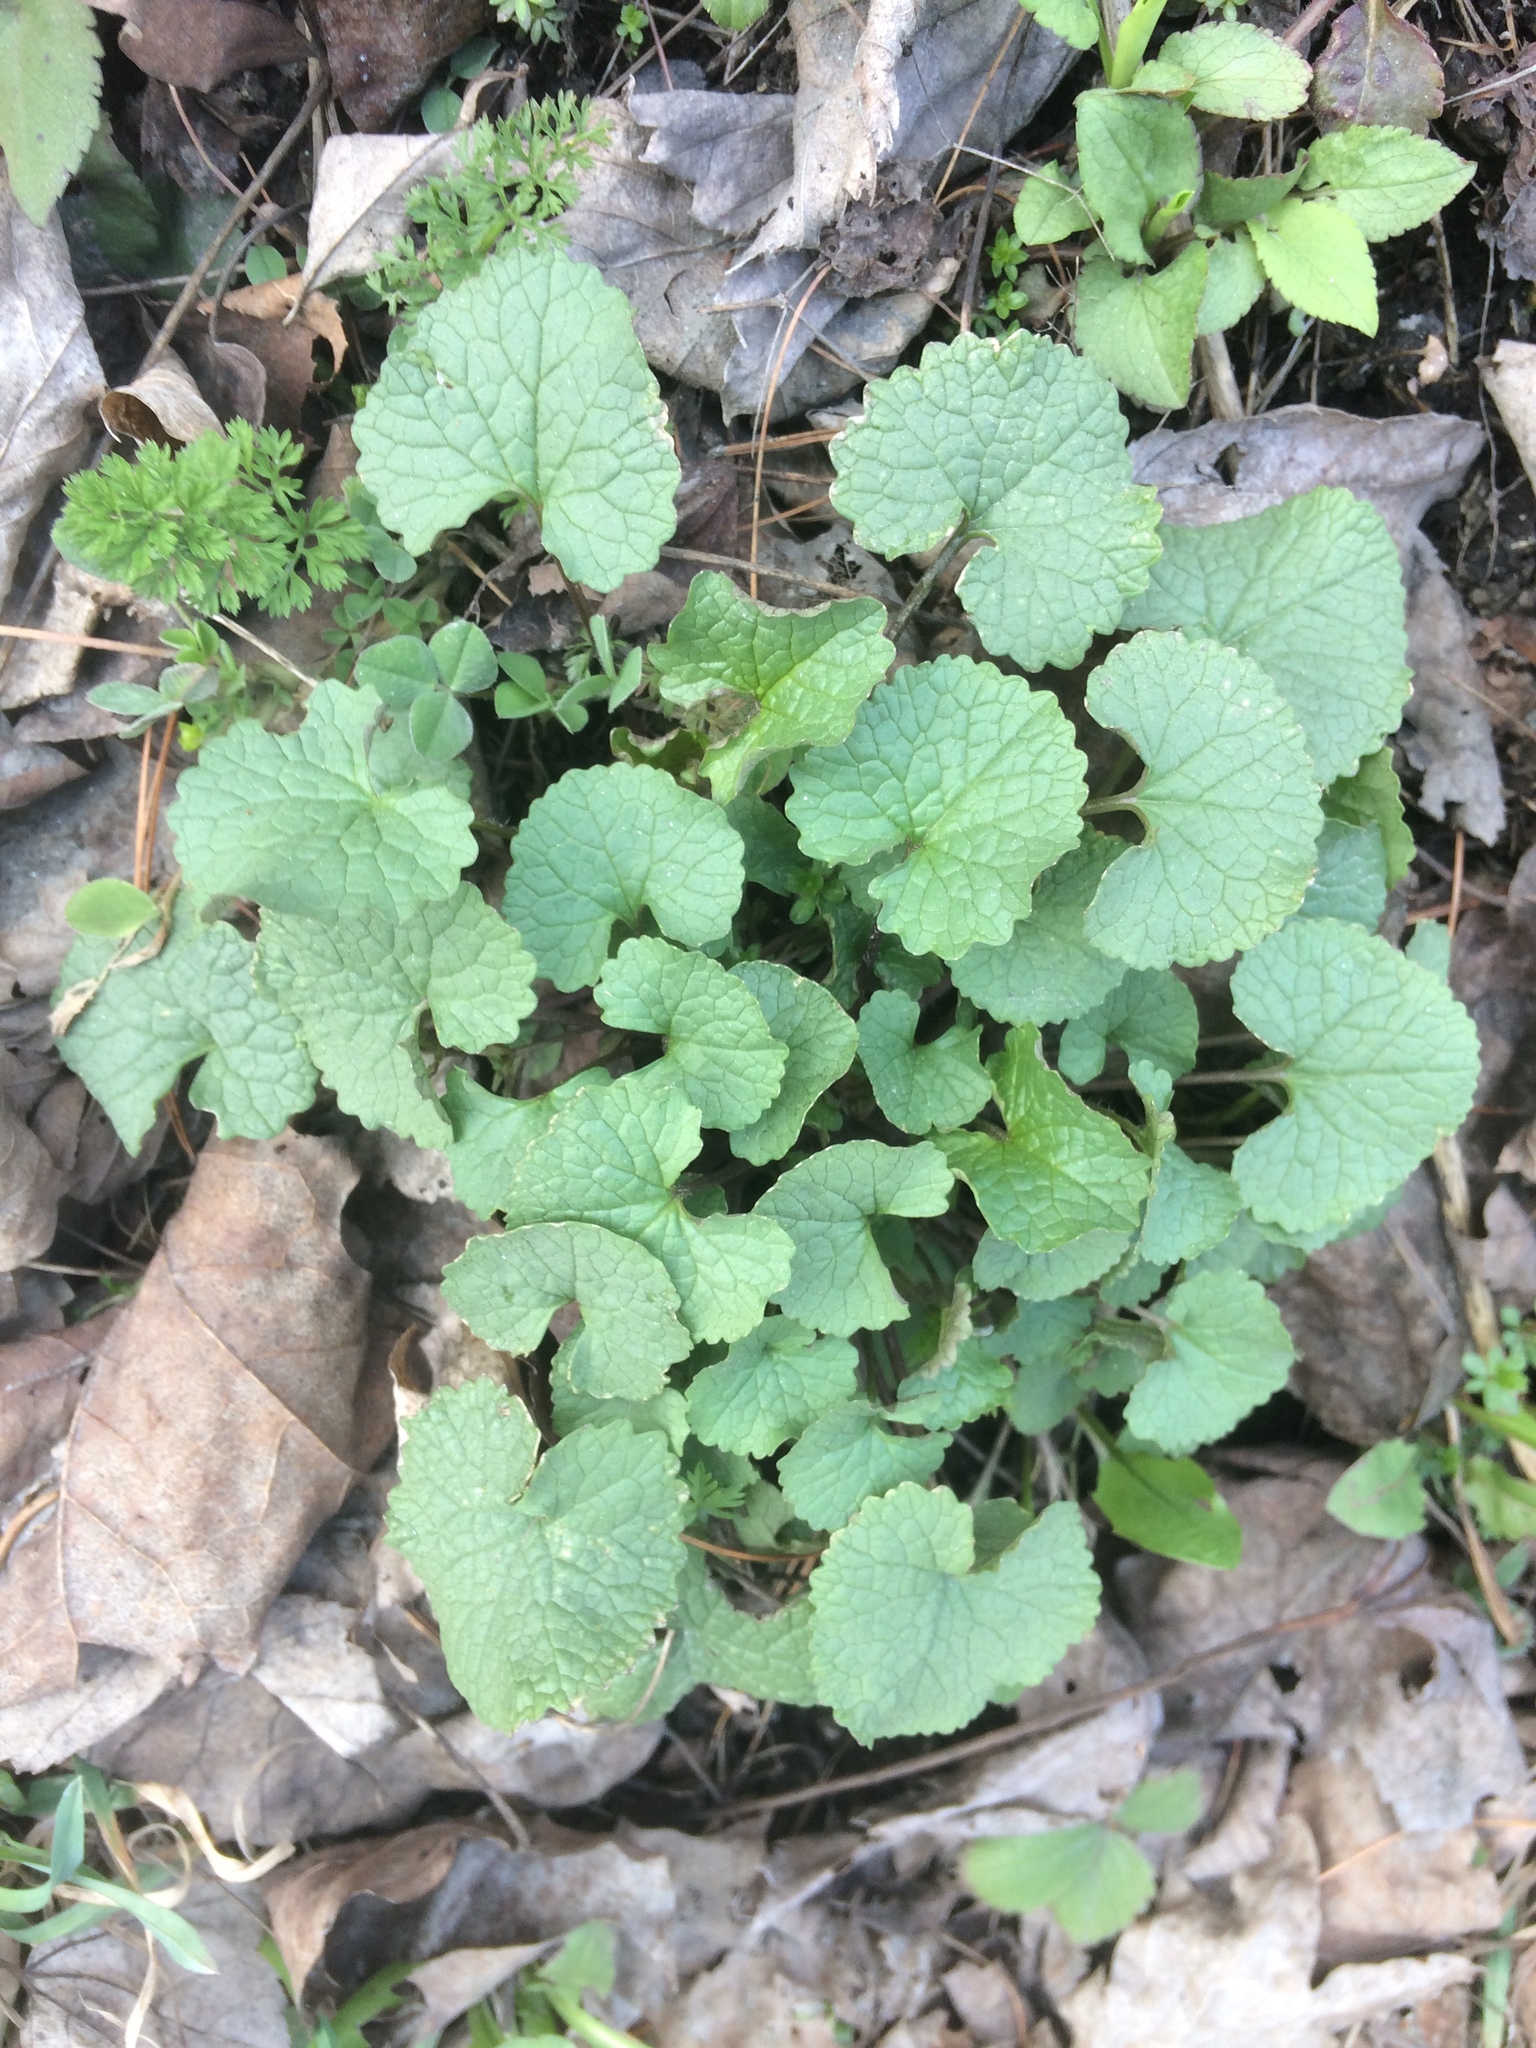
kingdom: Plantae
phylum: Tracheophyta
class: Magnoliopsida
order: Brassicales
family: Brassicaceae
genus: Alliaria
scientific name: Alliaria petiolata
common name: Garlic mustard
